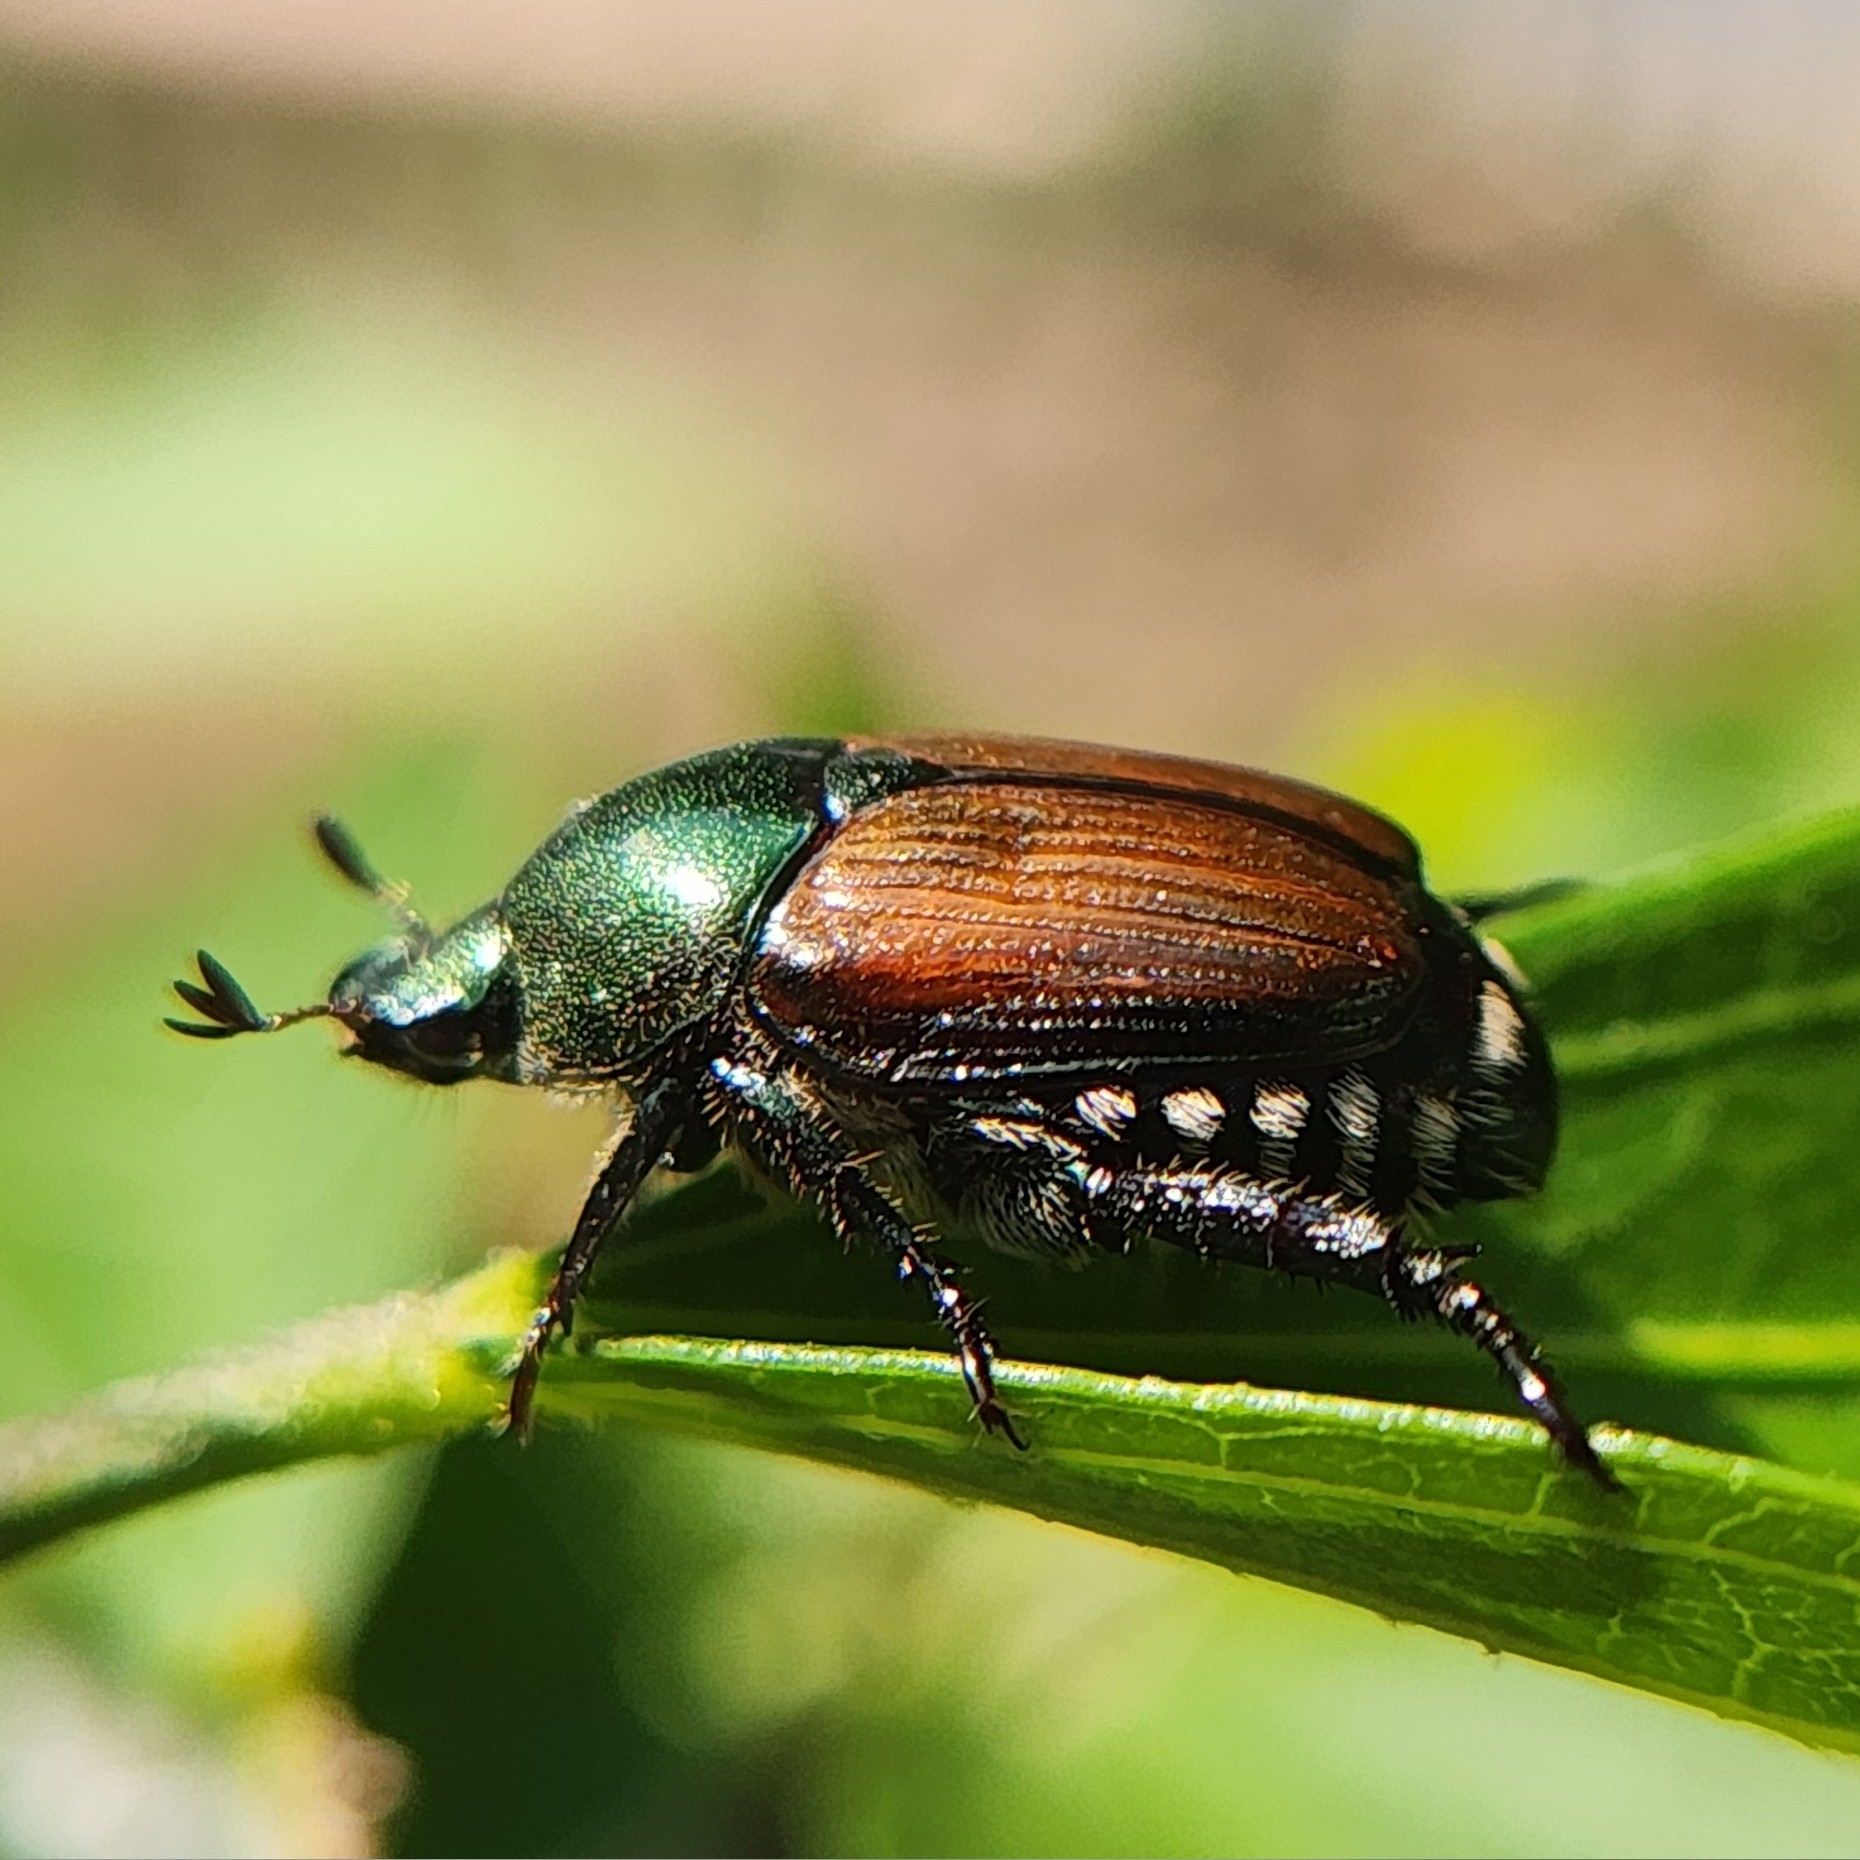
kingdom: Animalia
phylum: Arthropoda
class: Insecta
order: Coleoptera
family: Scarabaeidae
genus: Popillia
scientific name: Popillia japonica
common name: Japanese beetle
